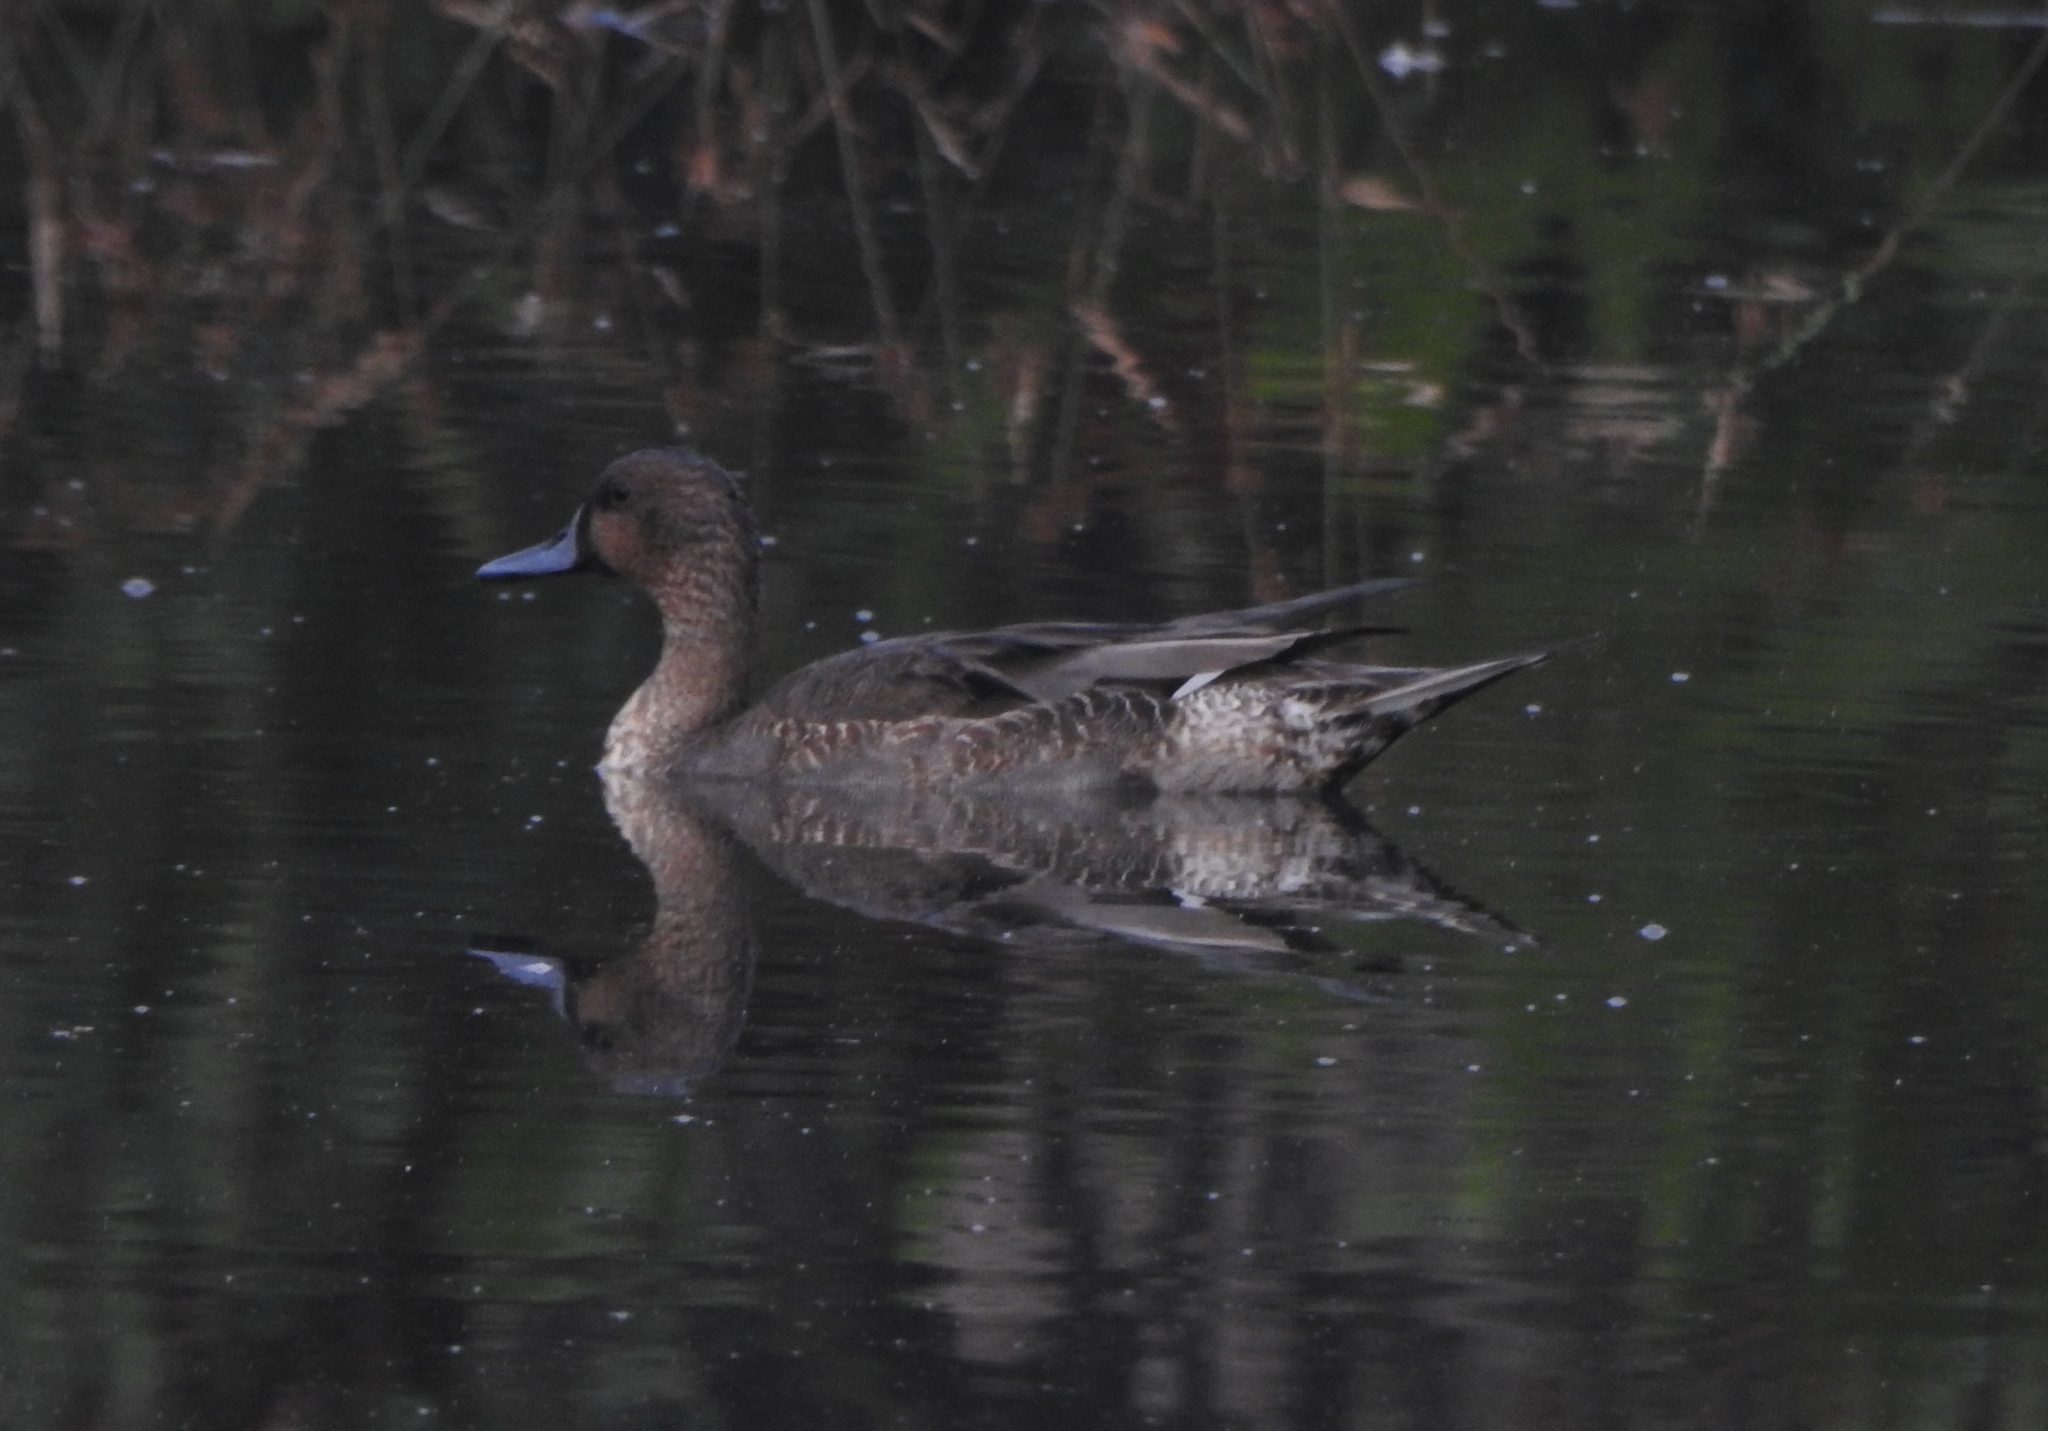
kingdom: Animalia
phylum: Chordata
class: Aves
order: Anseriformes
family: Anatidae
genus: Anas
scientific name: Anas acuta
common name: Northern pintail
